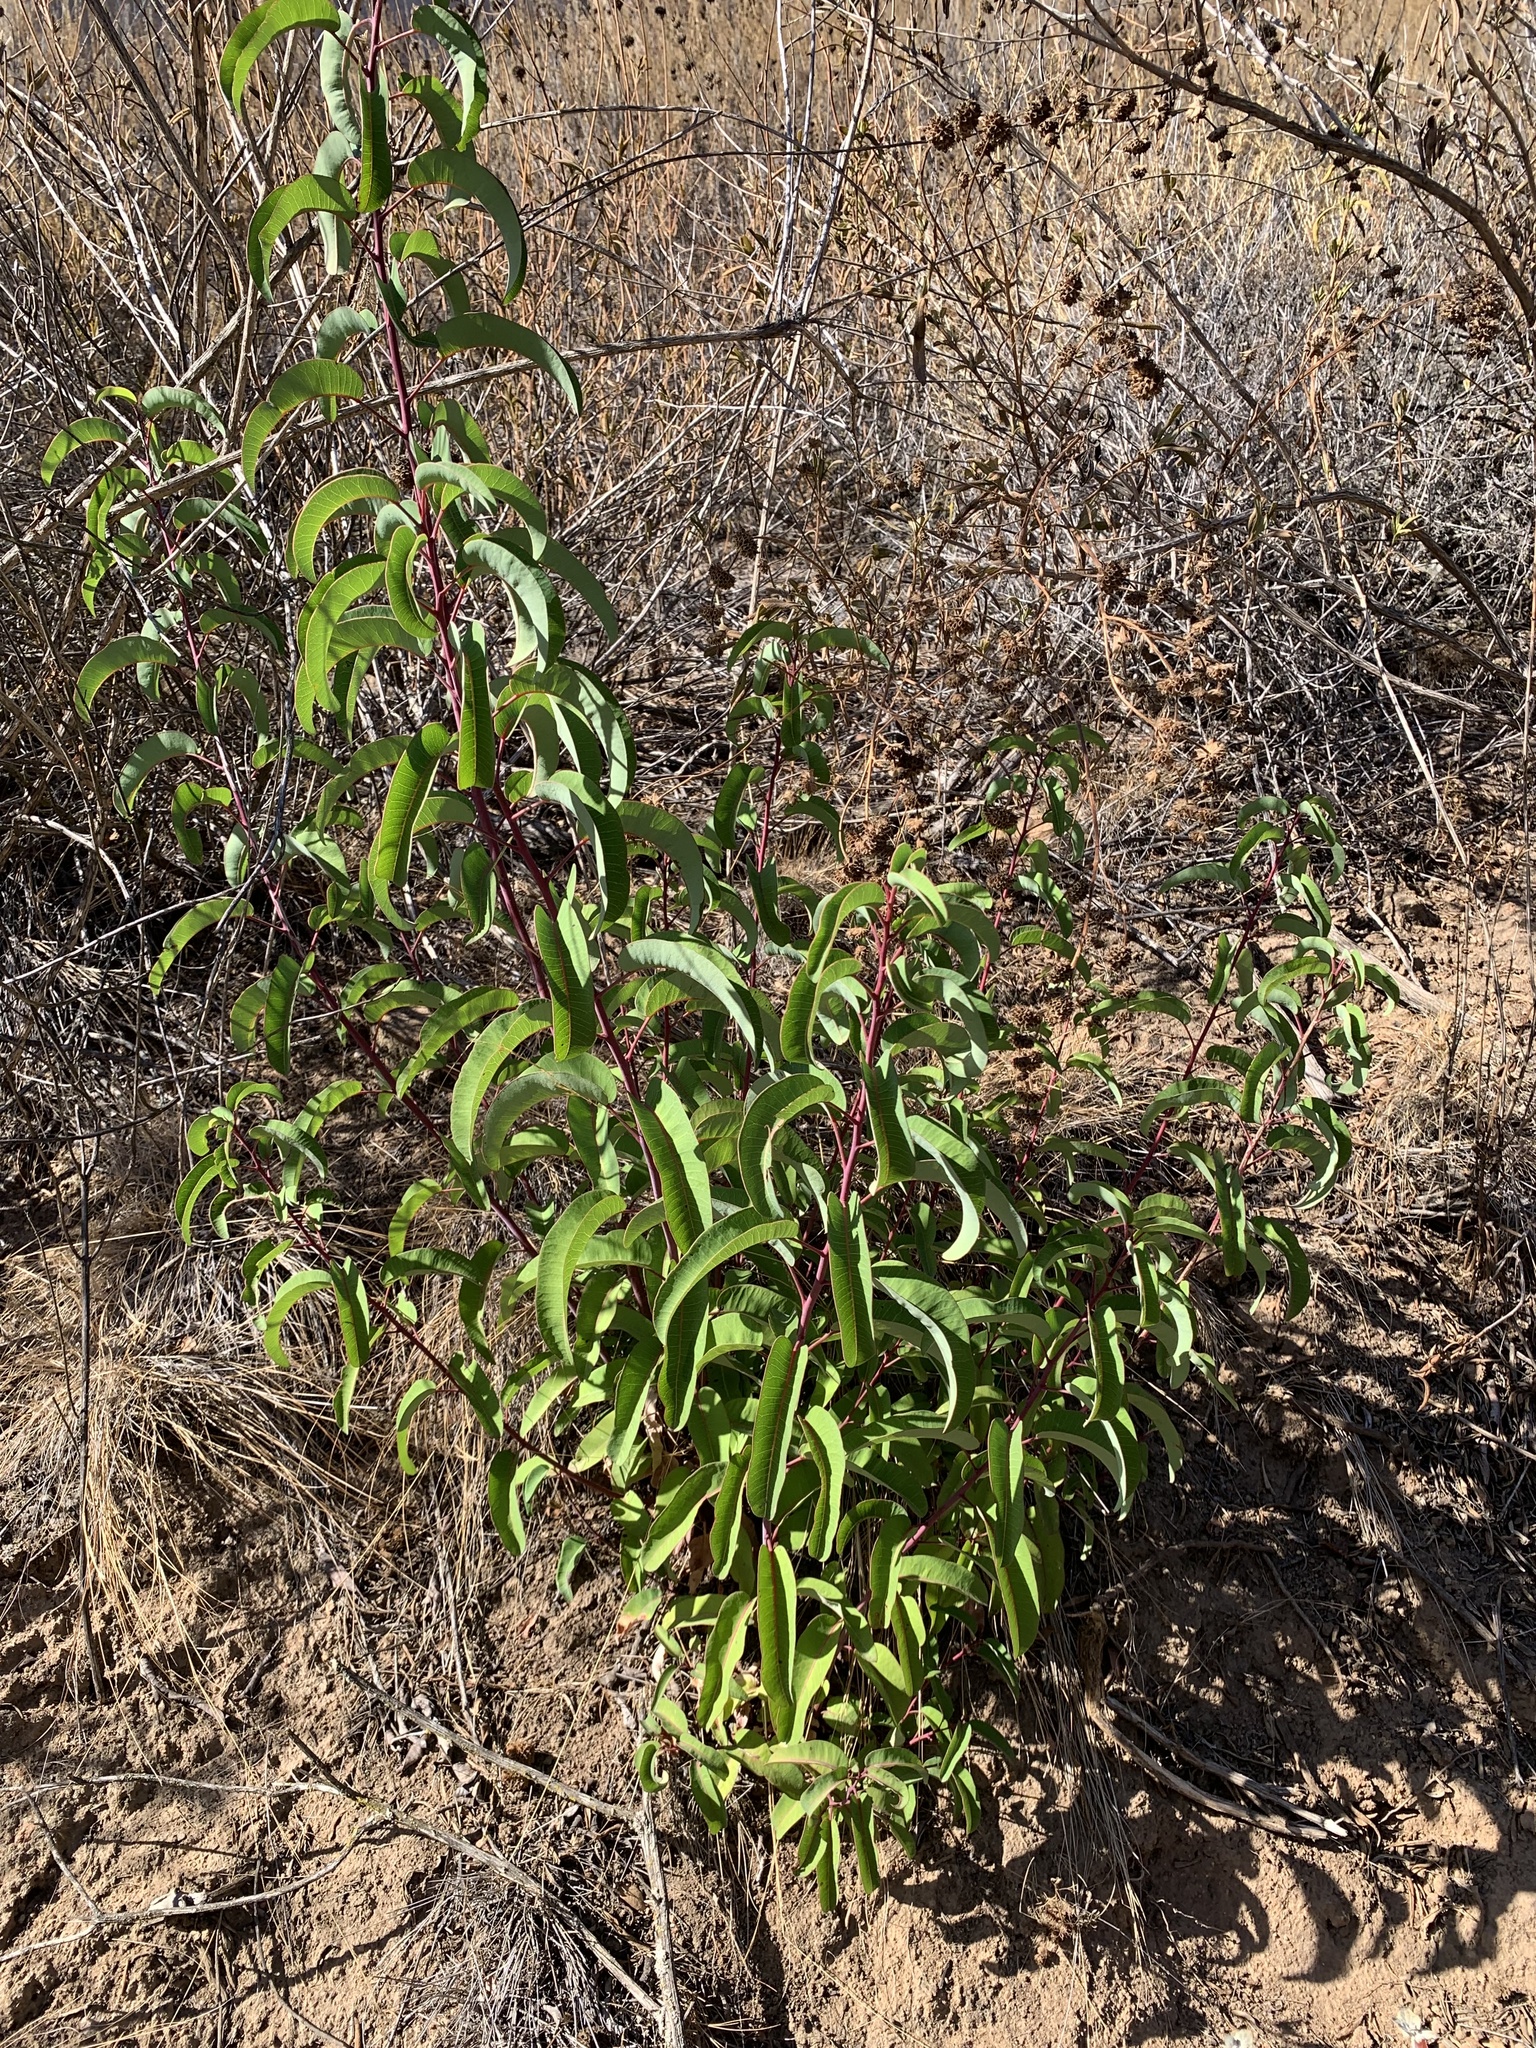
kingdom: Plantae
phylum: Tracheophyta
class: Magnoliopsida
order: Sapindales
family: Anacardiaceae
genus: Malosma
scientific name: Malosma laurina
